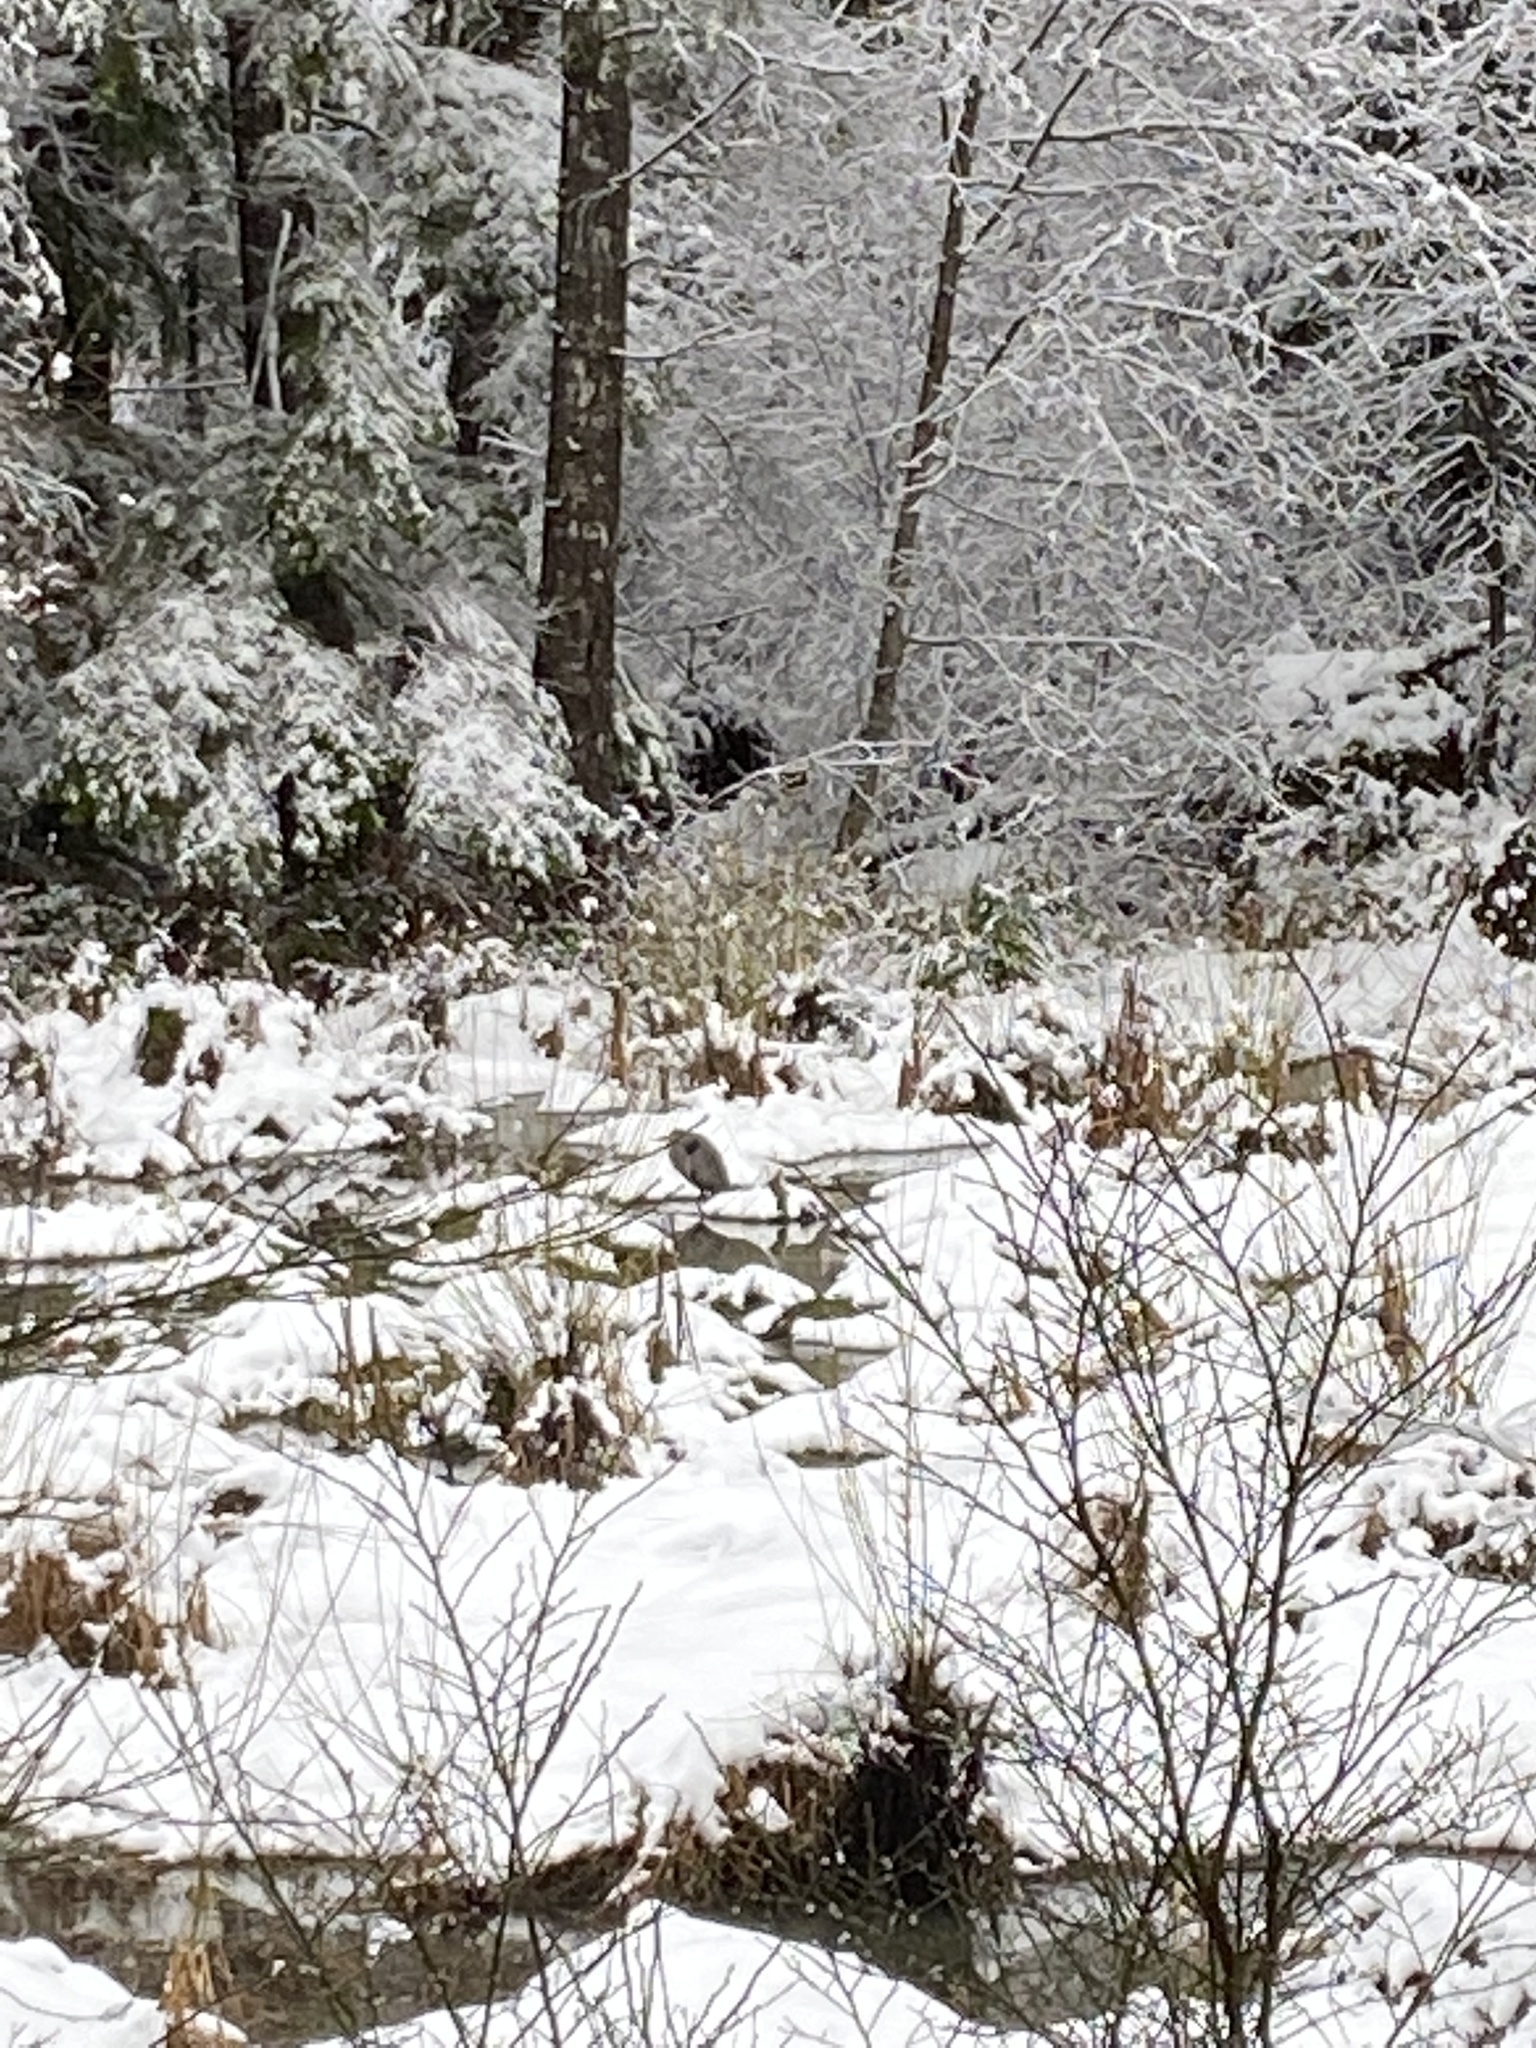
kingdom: Animalia
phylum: Chordata
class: Aves
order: Pelecaniformes
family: Ardeidae
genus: Ardea
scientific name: Ardea herodias
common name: Great blue heron
